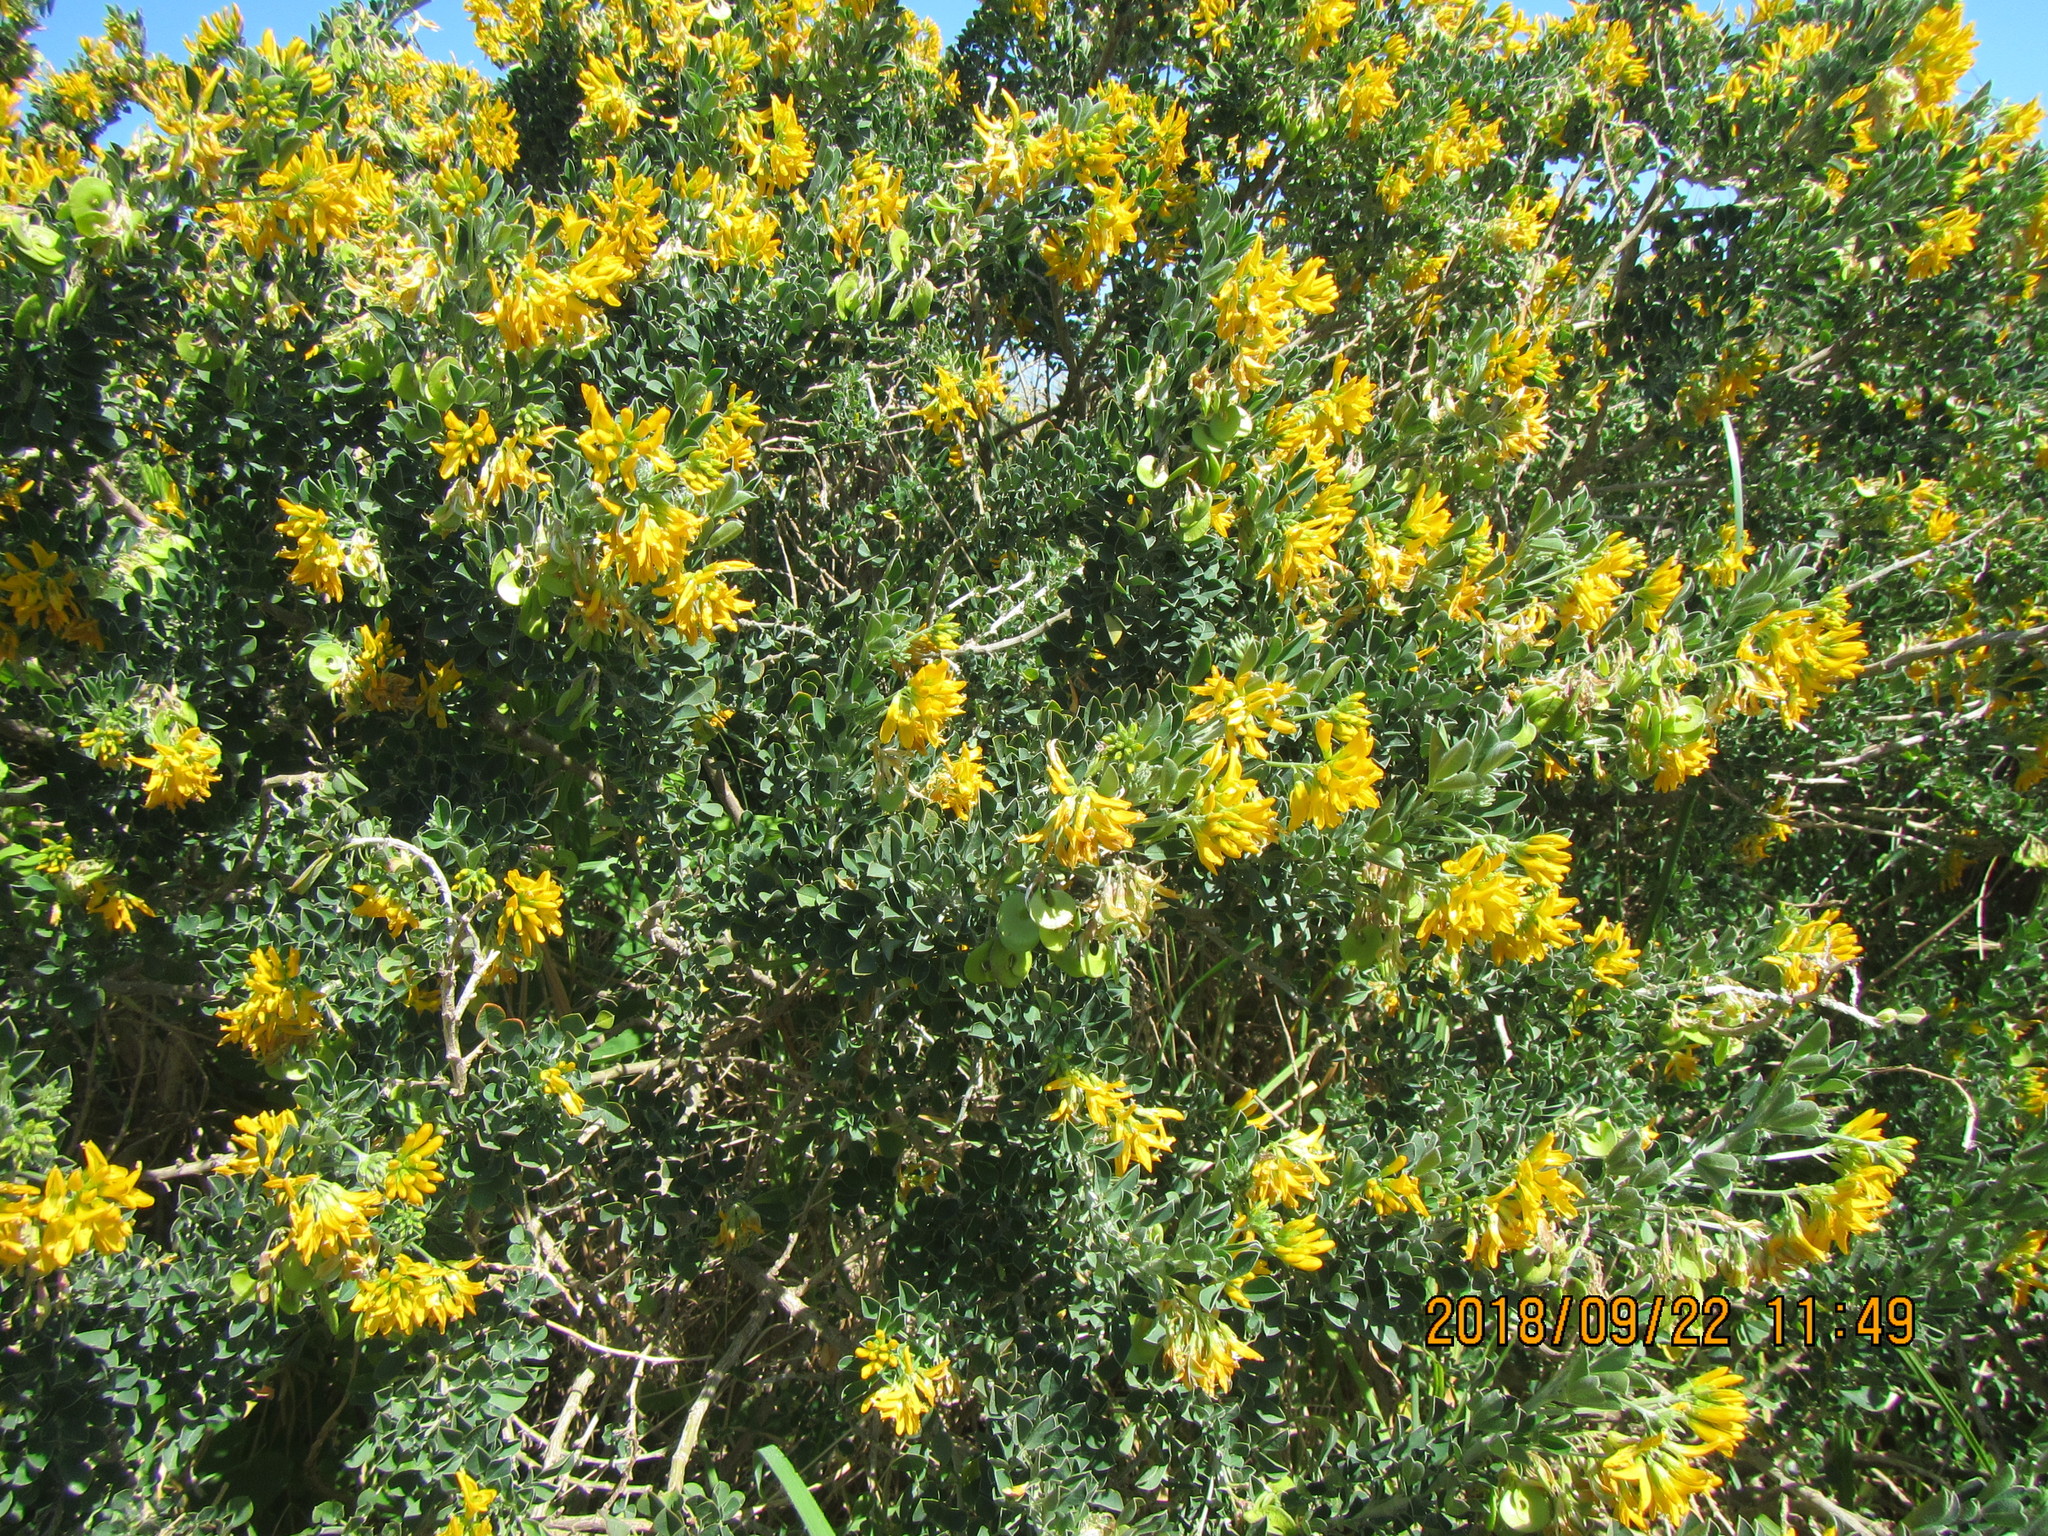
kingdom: Plantae
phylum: Tracheophyta
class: Magnoliopsida
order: Fabales
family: Fabaceae
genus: Medicago
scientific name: Medicago arborea
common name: Moon trefoil
